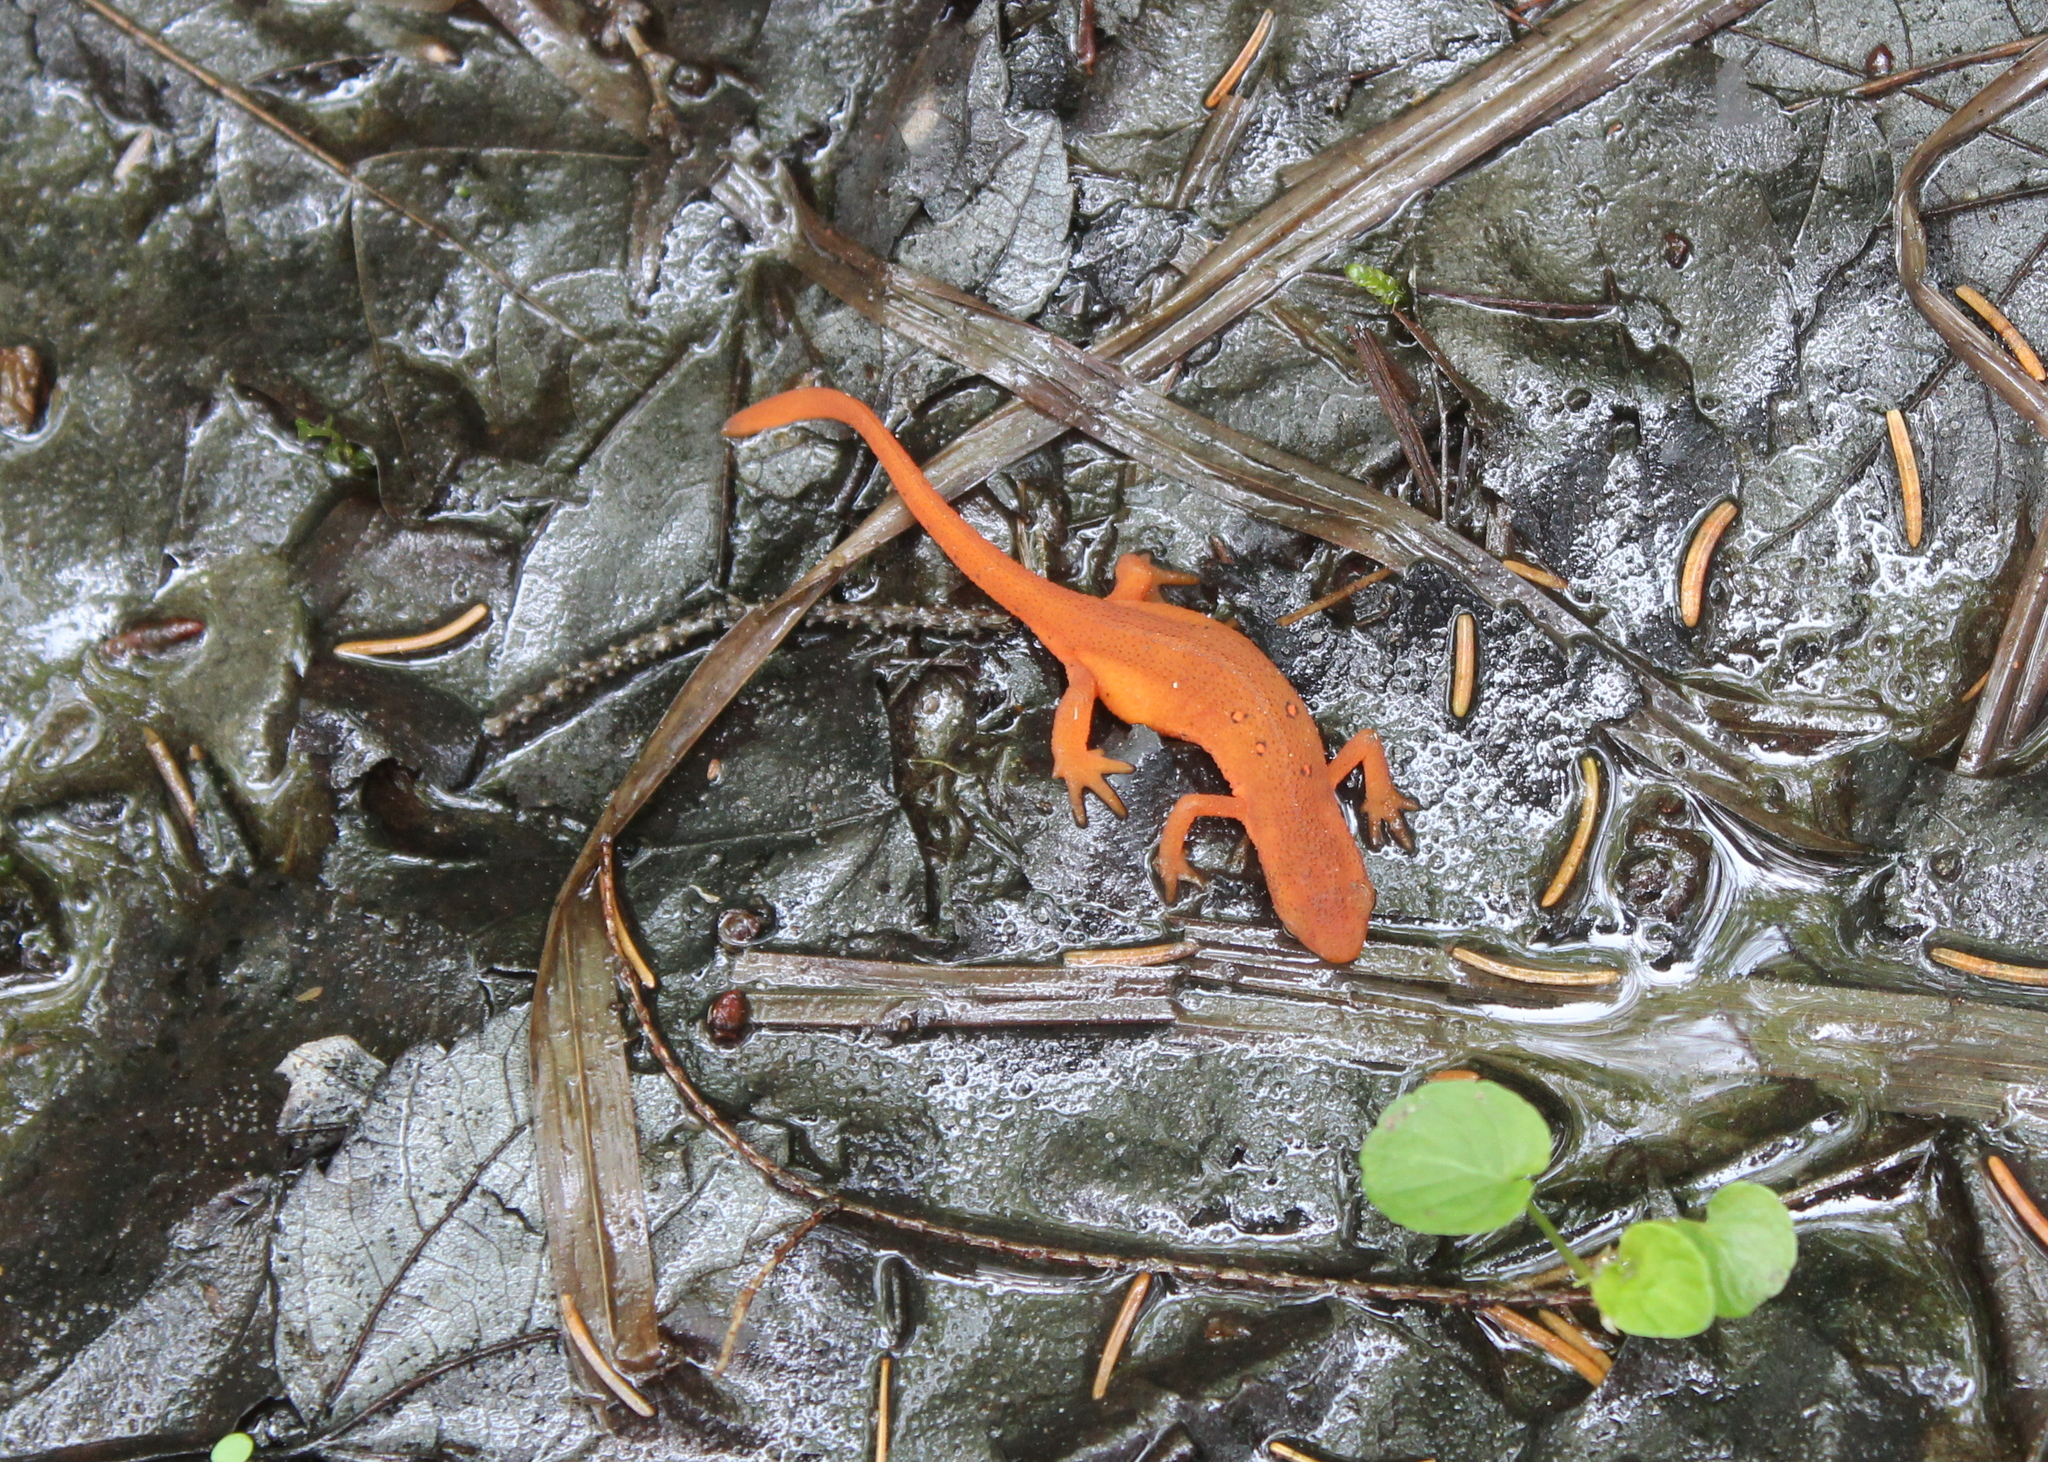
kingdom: Animalia
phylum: Chordata
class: Amphibia
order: Caudata
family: Salamandridae
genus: Notophthalmus
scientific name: Notophthalmus viridescens
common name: Eastern newt
